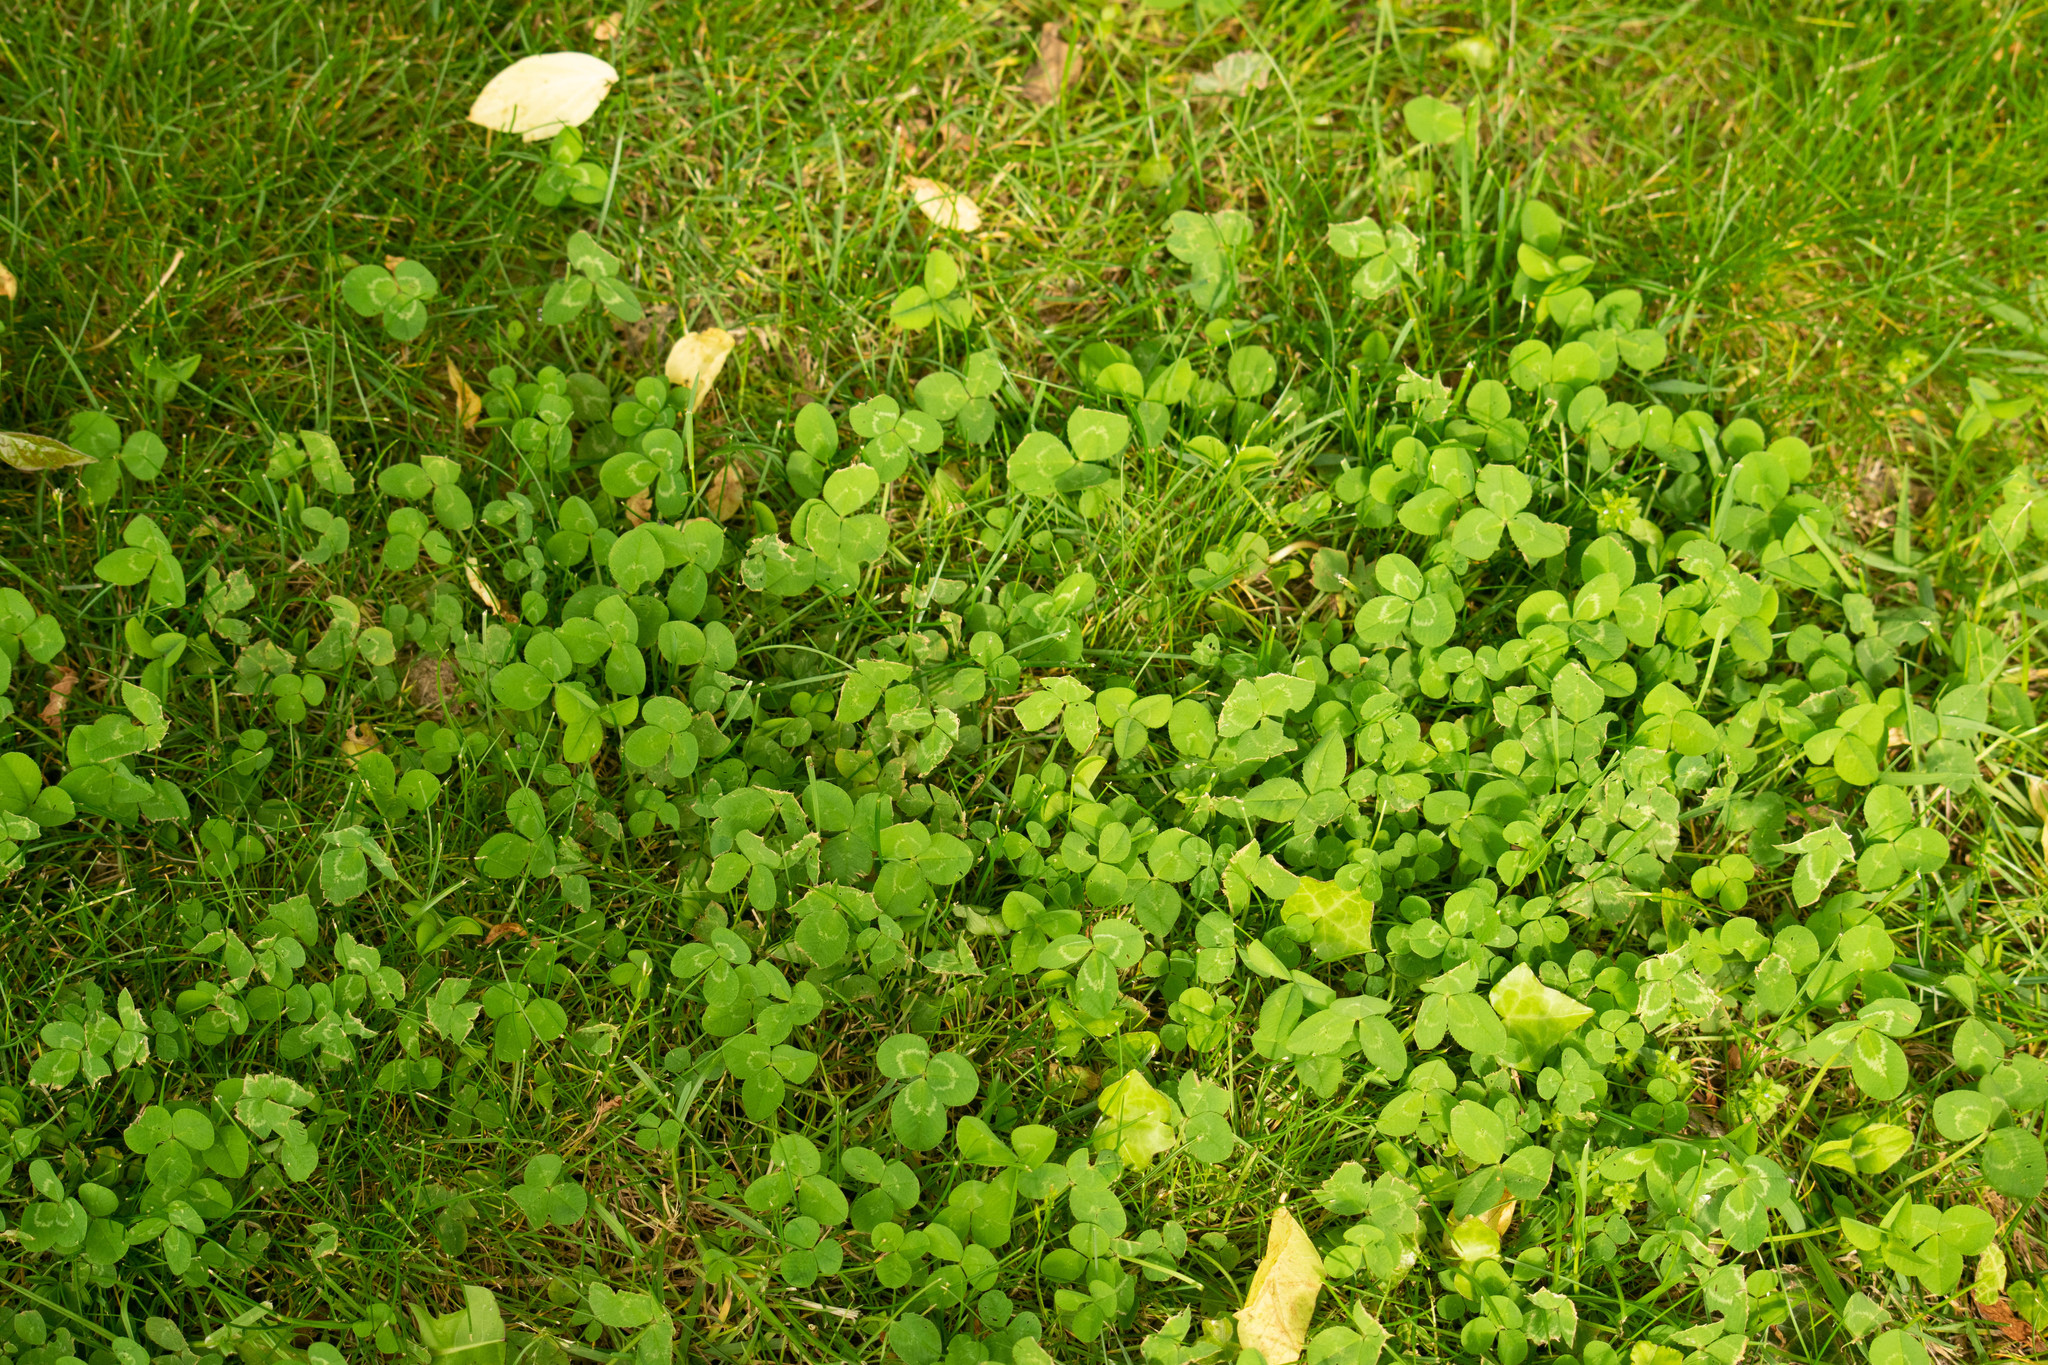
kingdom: Plantae
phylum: Tracheophyta
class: Magnoliopsida
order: Fabales
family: Fabaceae
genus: Trifolium
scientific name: Trifolium repens
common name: White clover
